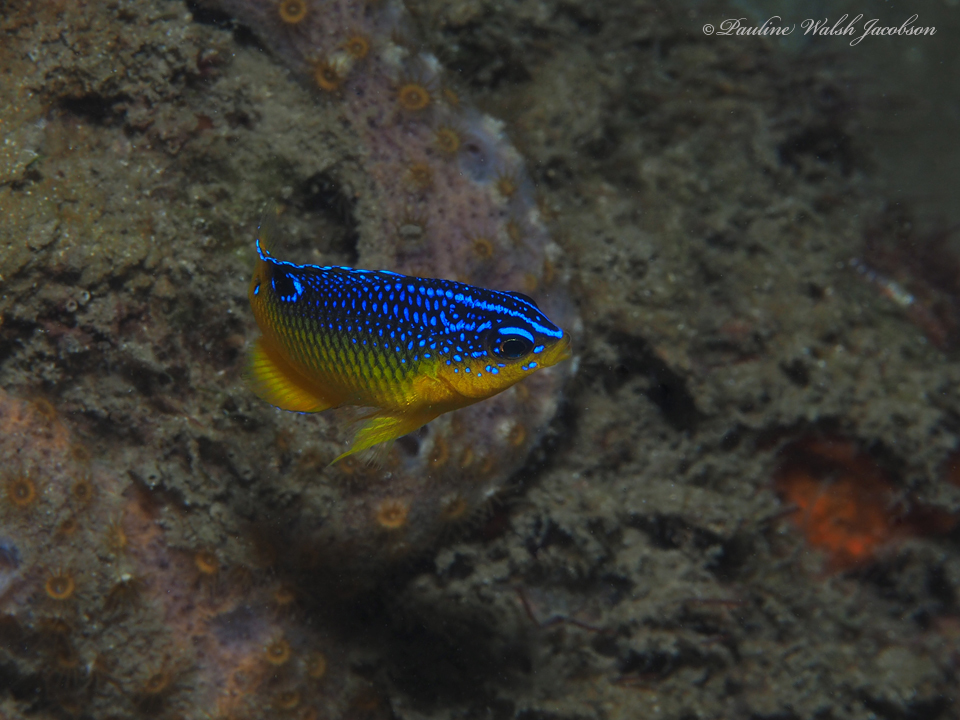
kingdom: Animalia
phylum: Chordata
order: Perciformes
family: Pomacentridae
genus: Stegastes
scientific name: Stegastes xanthurus
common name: Cocoa damselfish
